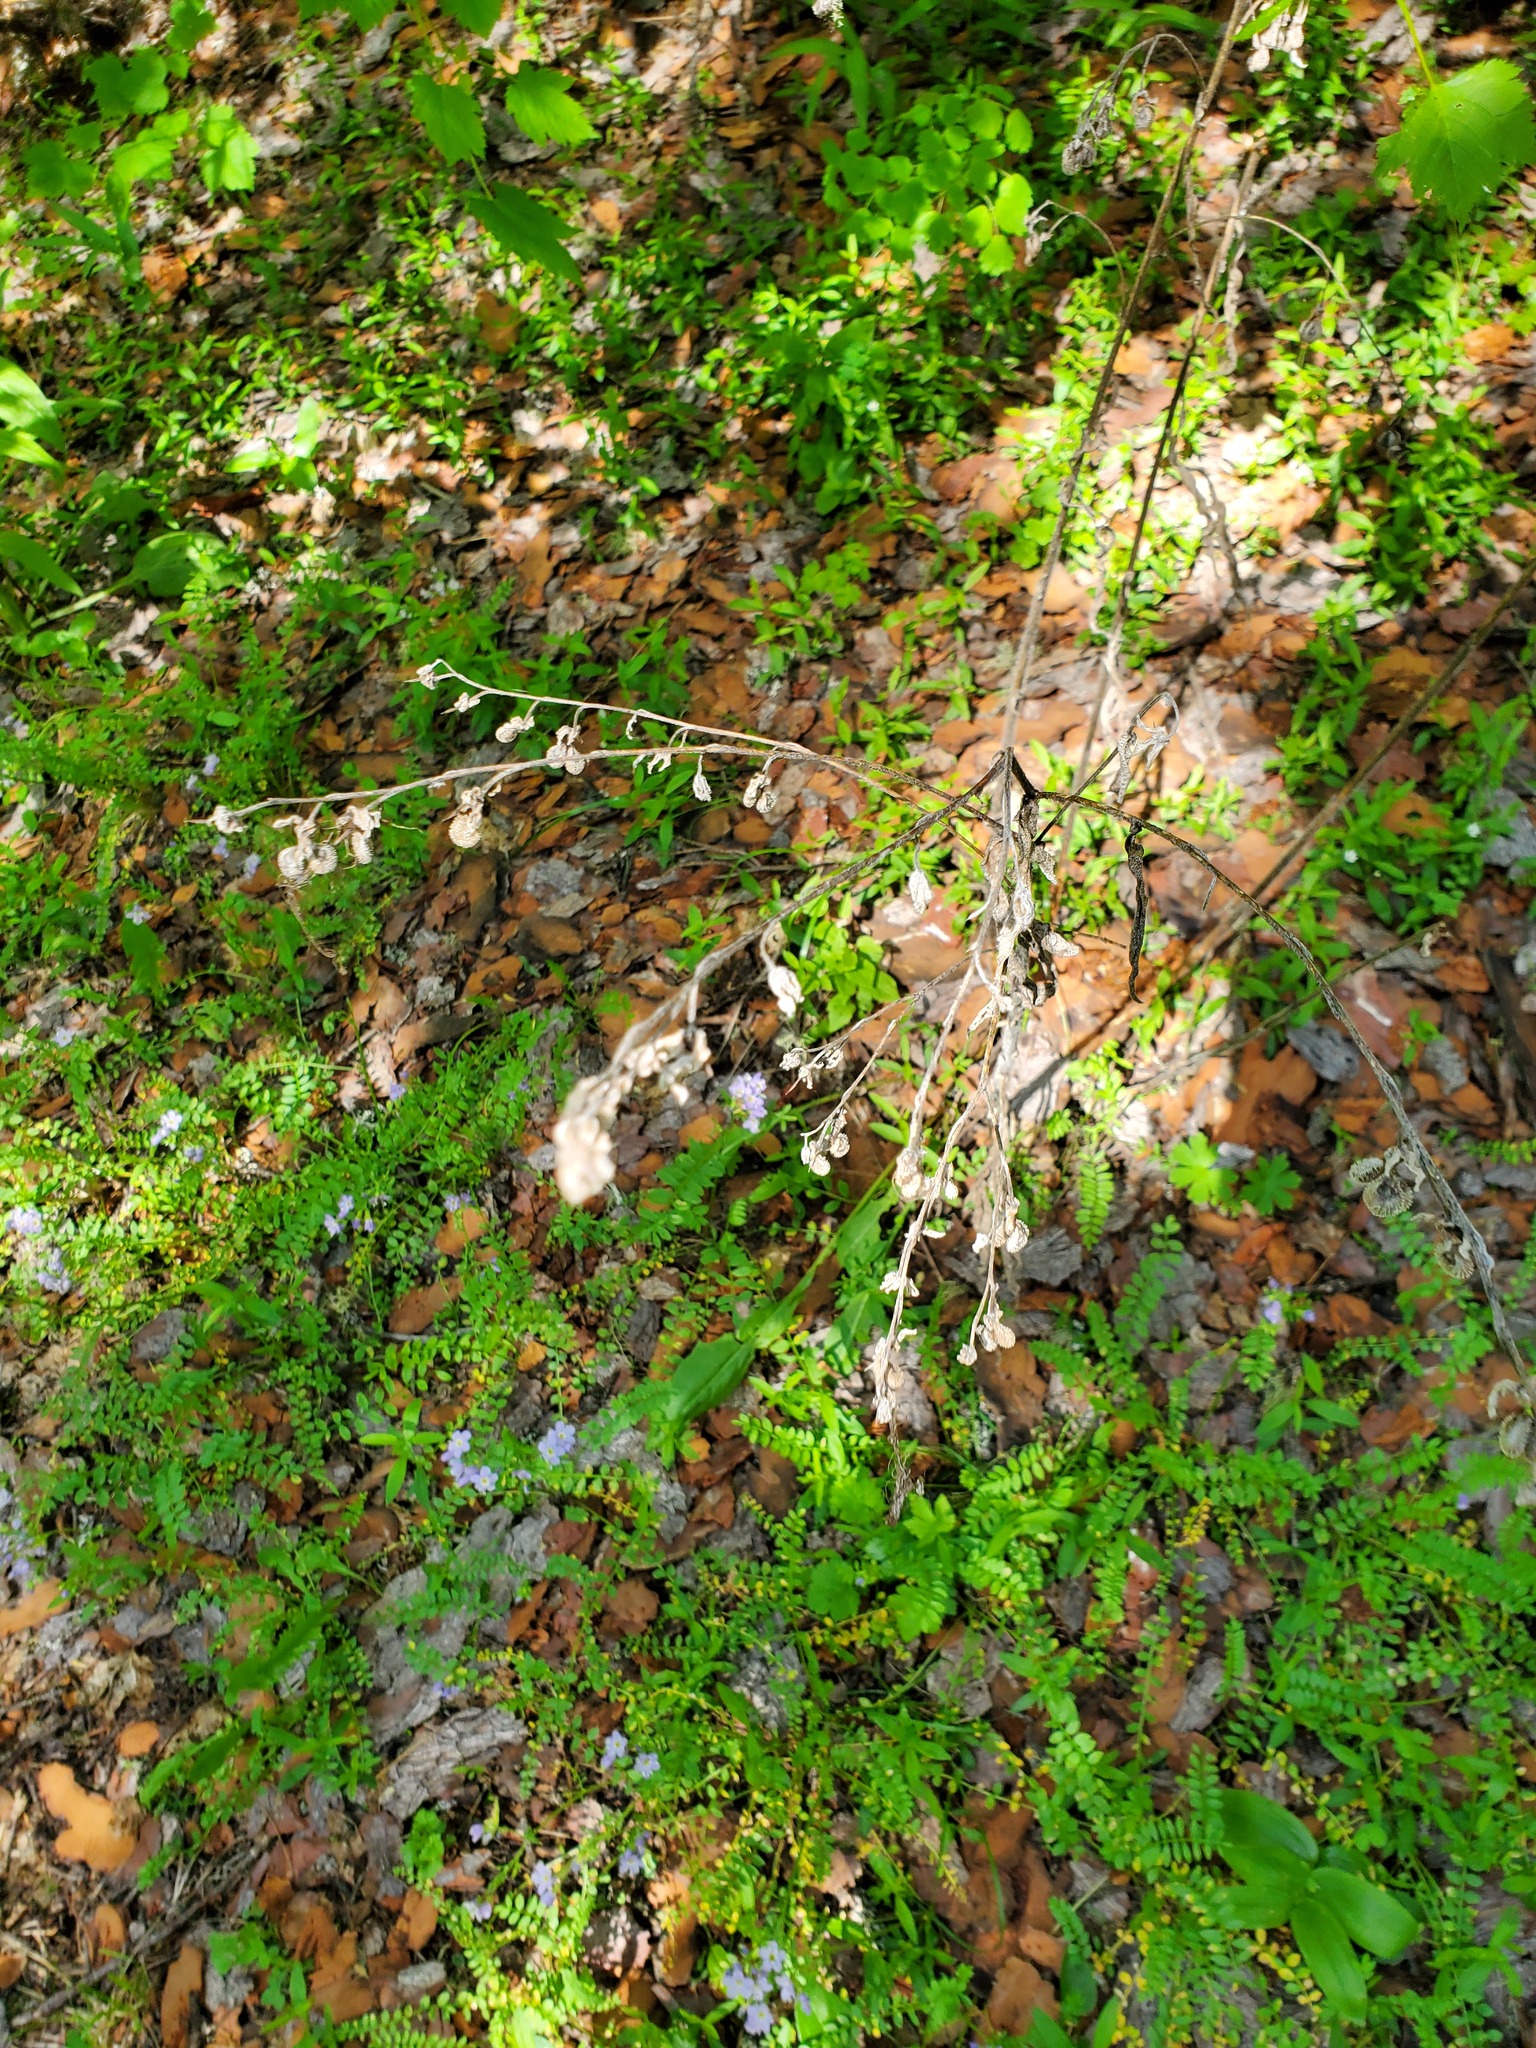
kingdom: Plantae
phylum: Tracheophyta
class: Magnoliopsida
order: Boraginales
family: Boraginaceae
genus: Cynoglossum
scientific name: Cynoglossum officinale
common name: Hound's-tongue
